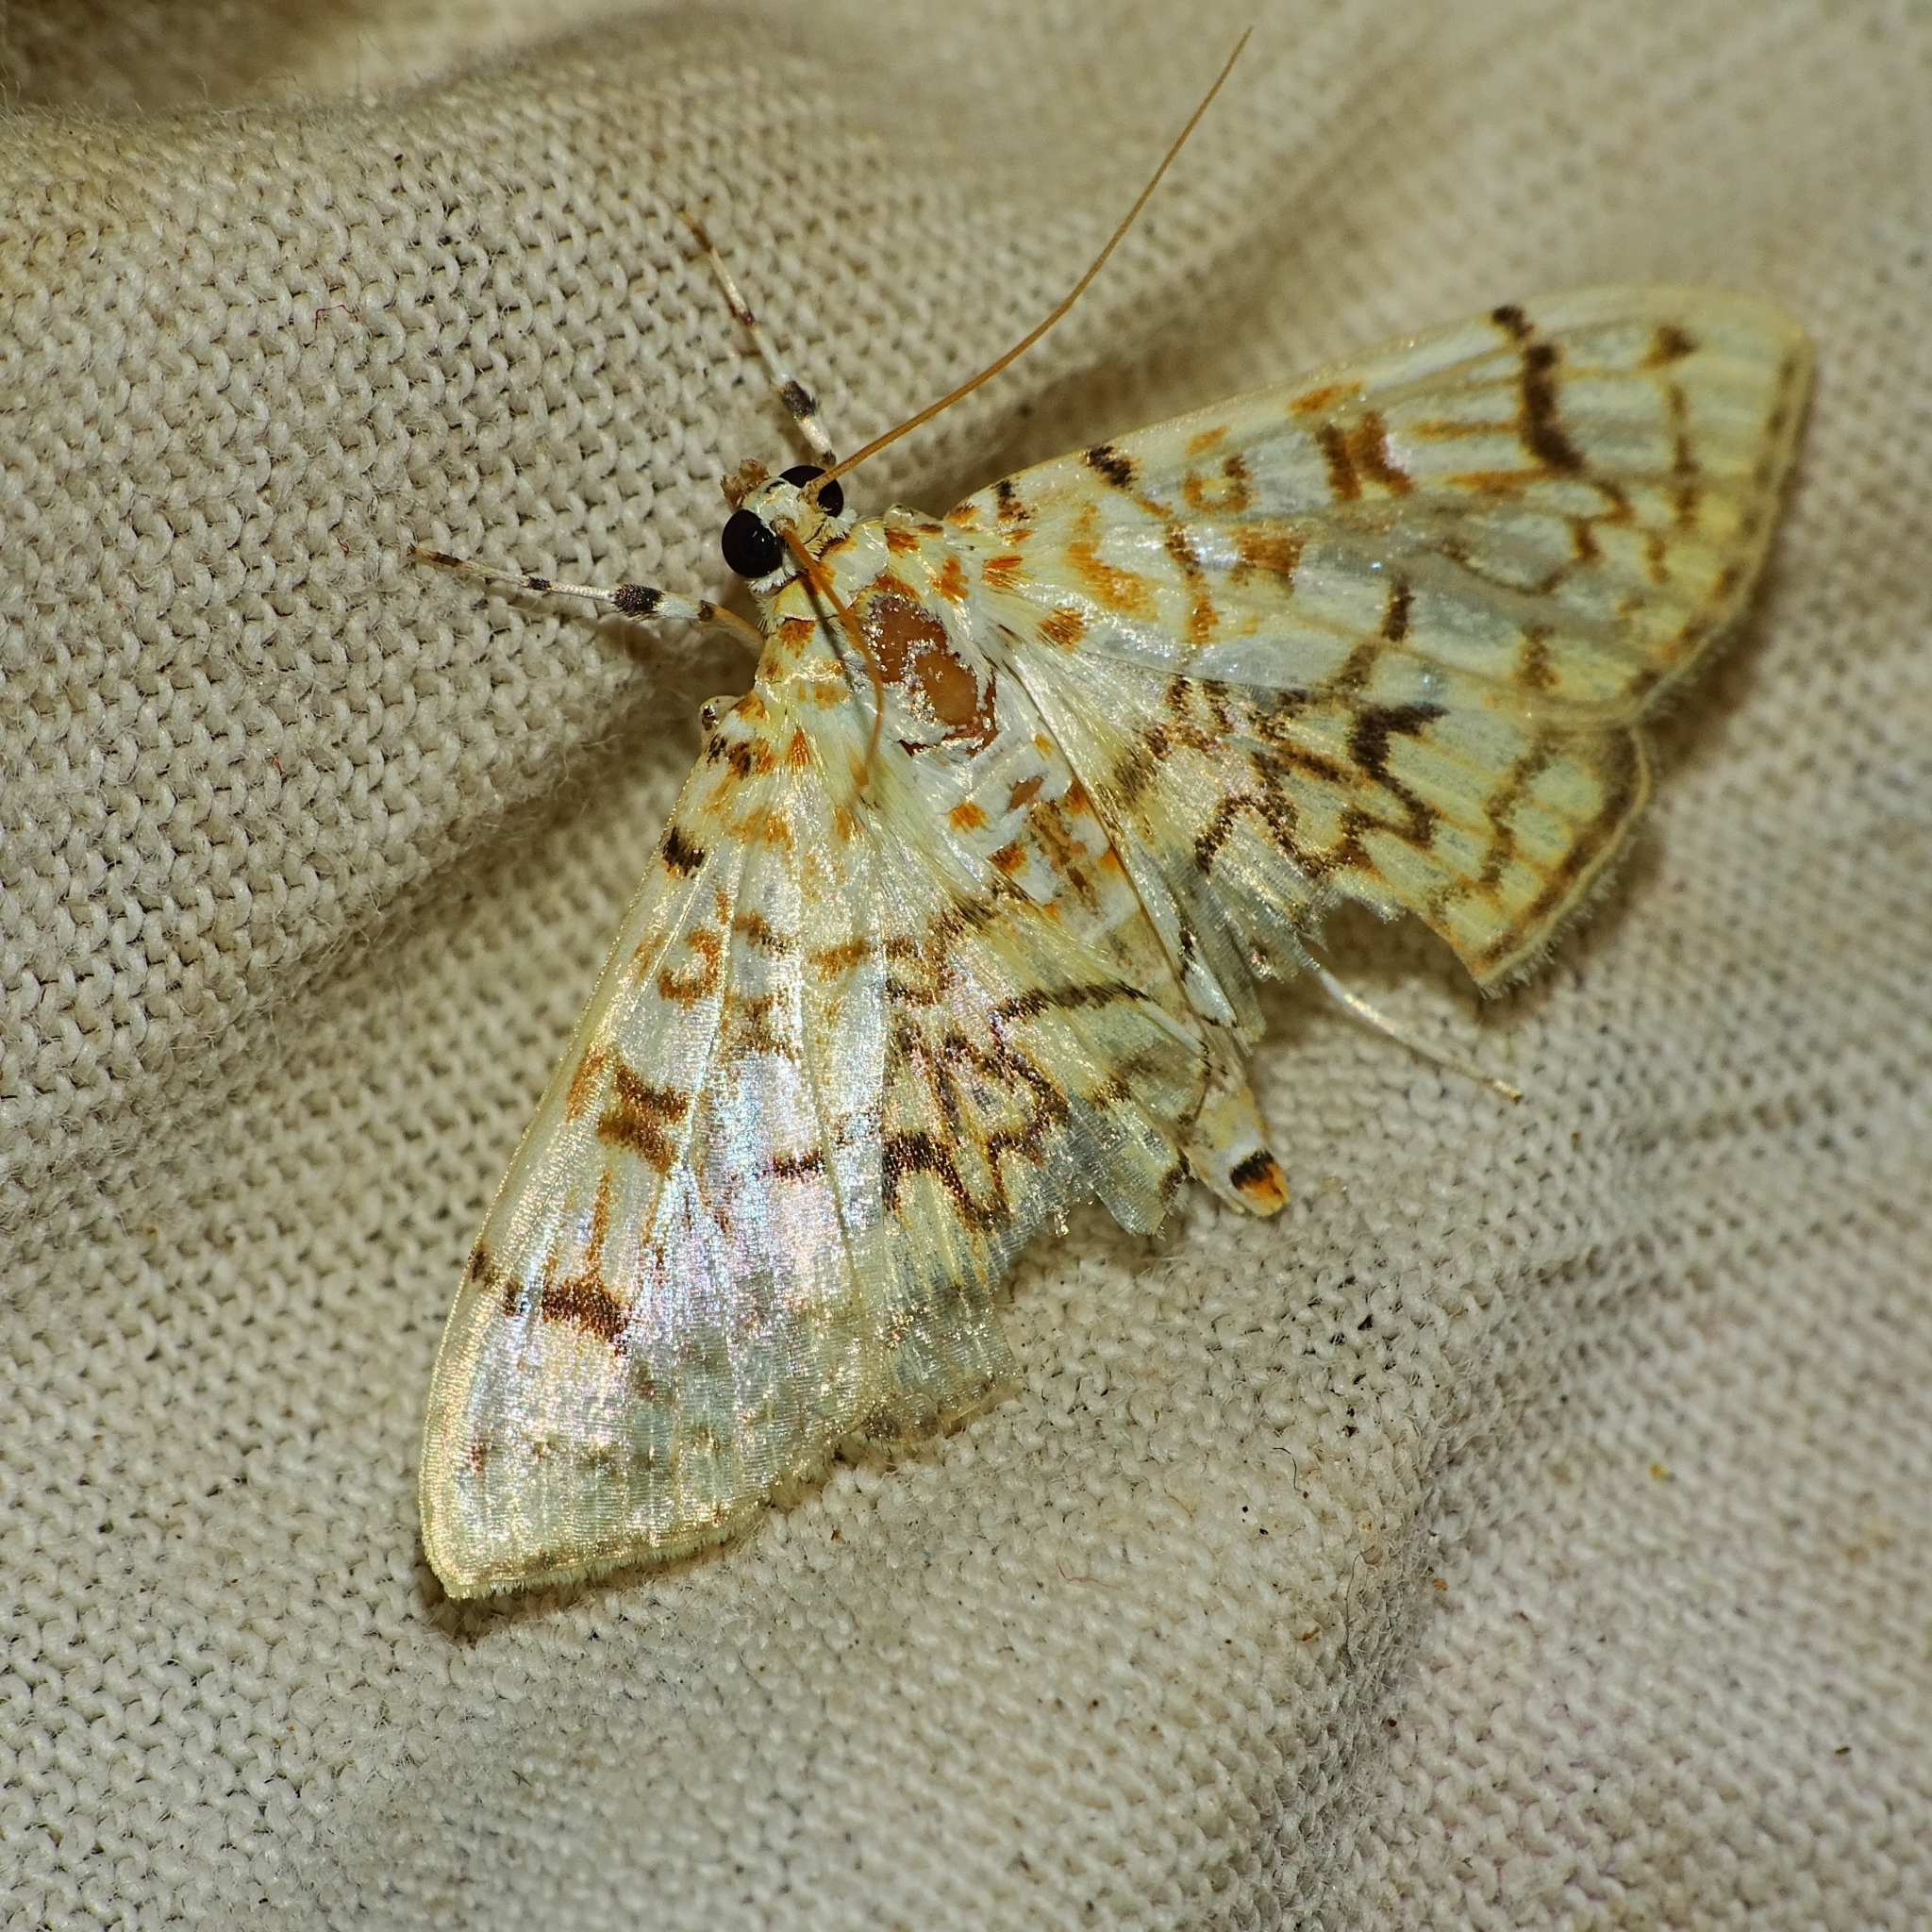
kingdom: Animalia
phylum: Arthropoda
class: Insecta
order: Lepidoptera
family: Crambidae
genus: Haritalodes
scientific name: Haritalodes derogata
